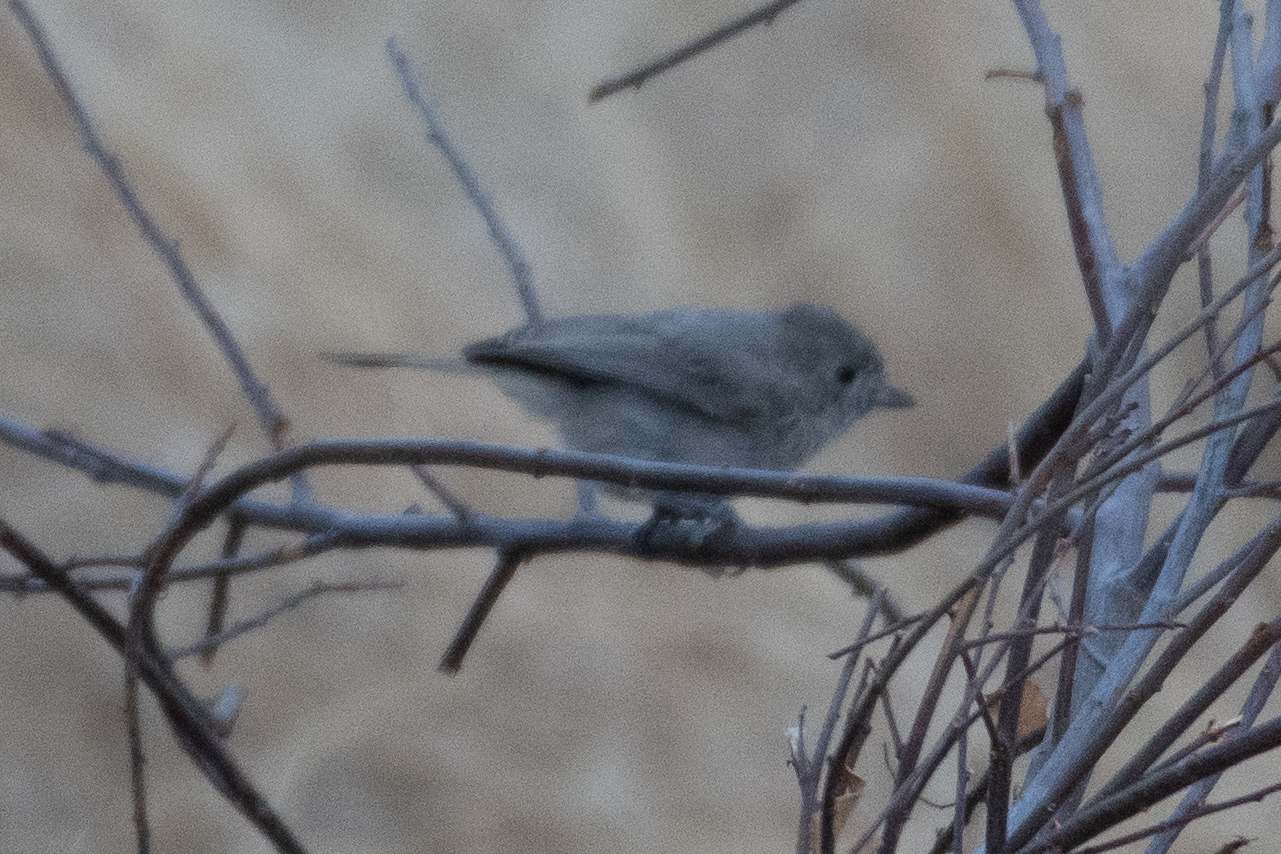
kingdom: Animalia
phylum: Chordata
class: Aves
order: Passeriformes
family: Paridae
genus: Baeolophus
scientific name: Baeolophus inornatus
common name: Oak titmouse
